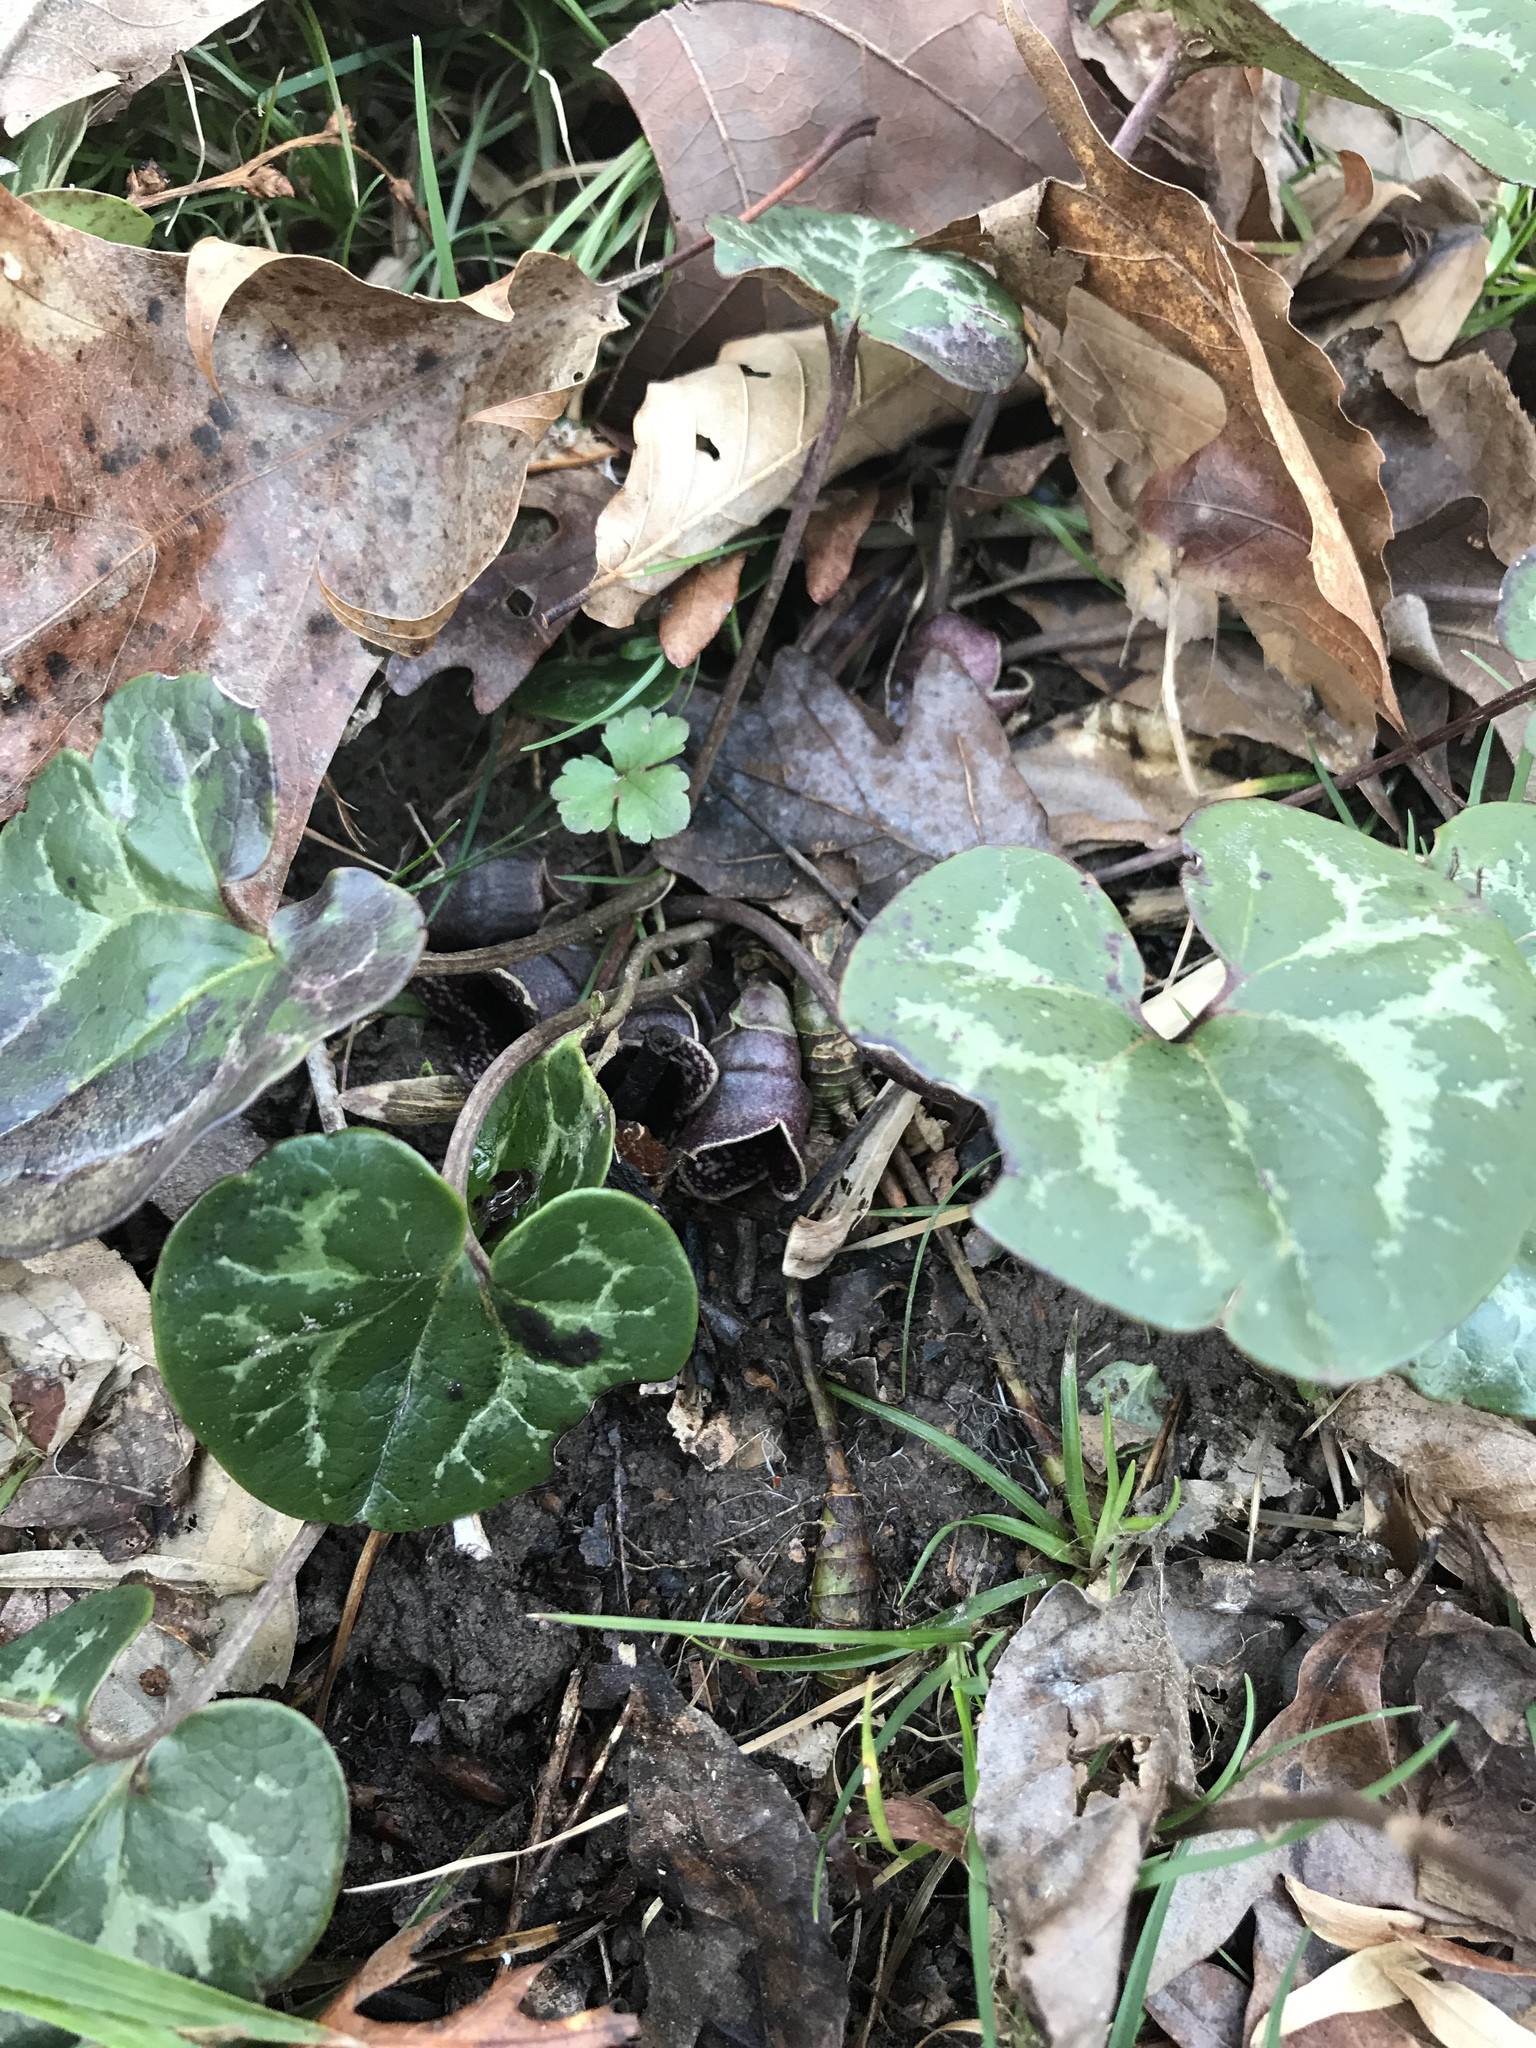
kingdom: Plantae
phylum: Tracheophyta
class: Magnoliopsida
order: Piperales
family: Aristolochiaceae
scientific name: Aristolochiaceae
